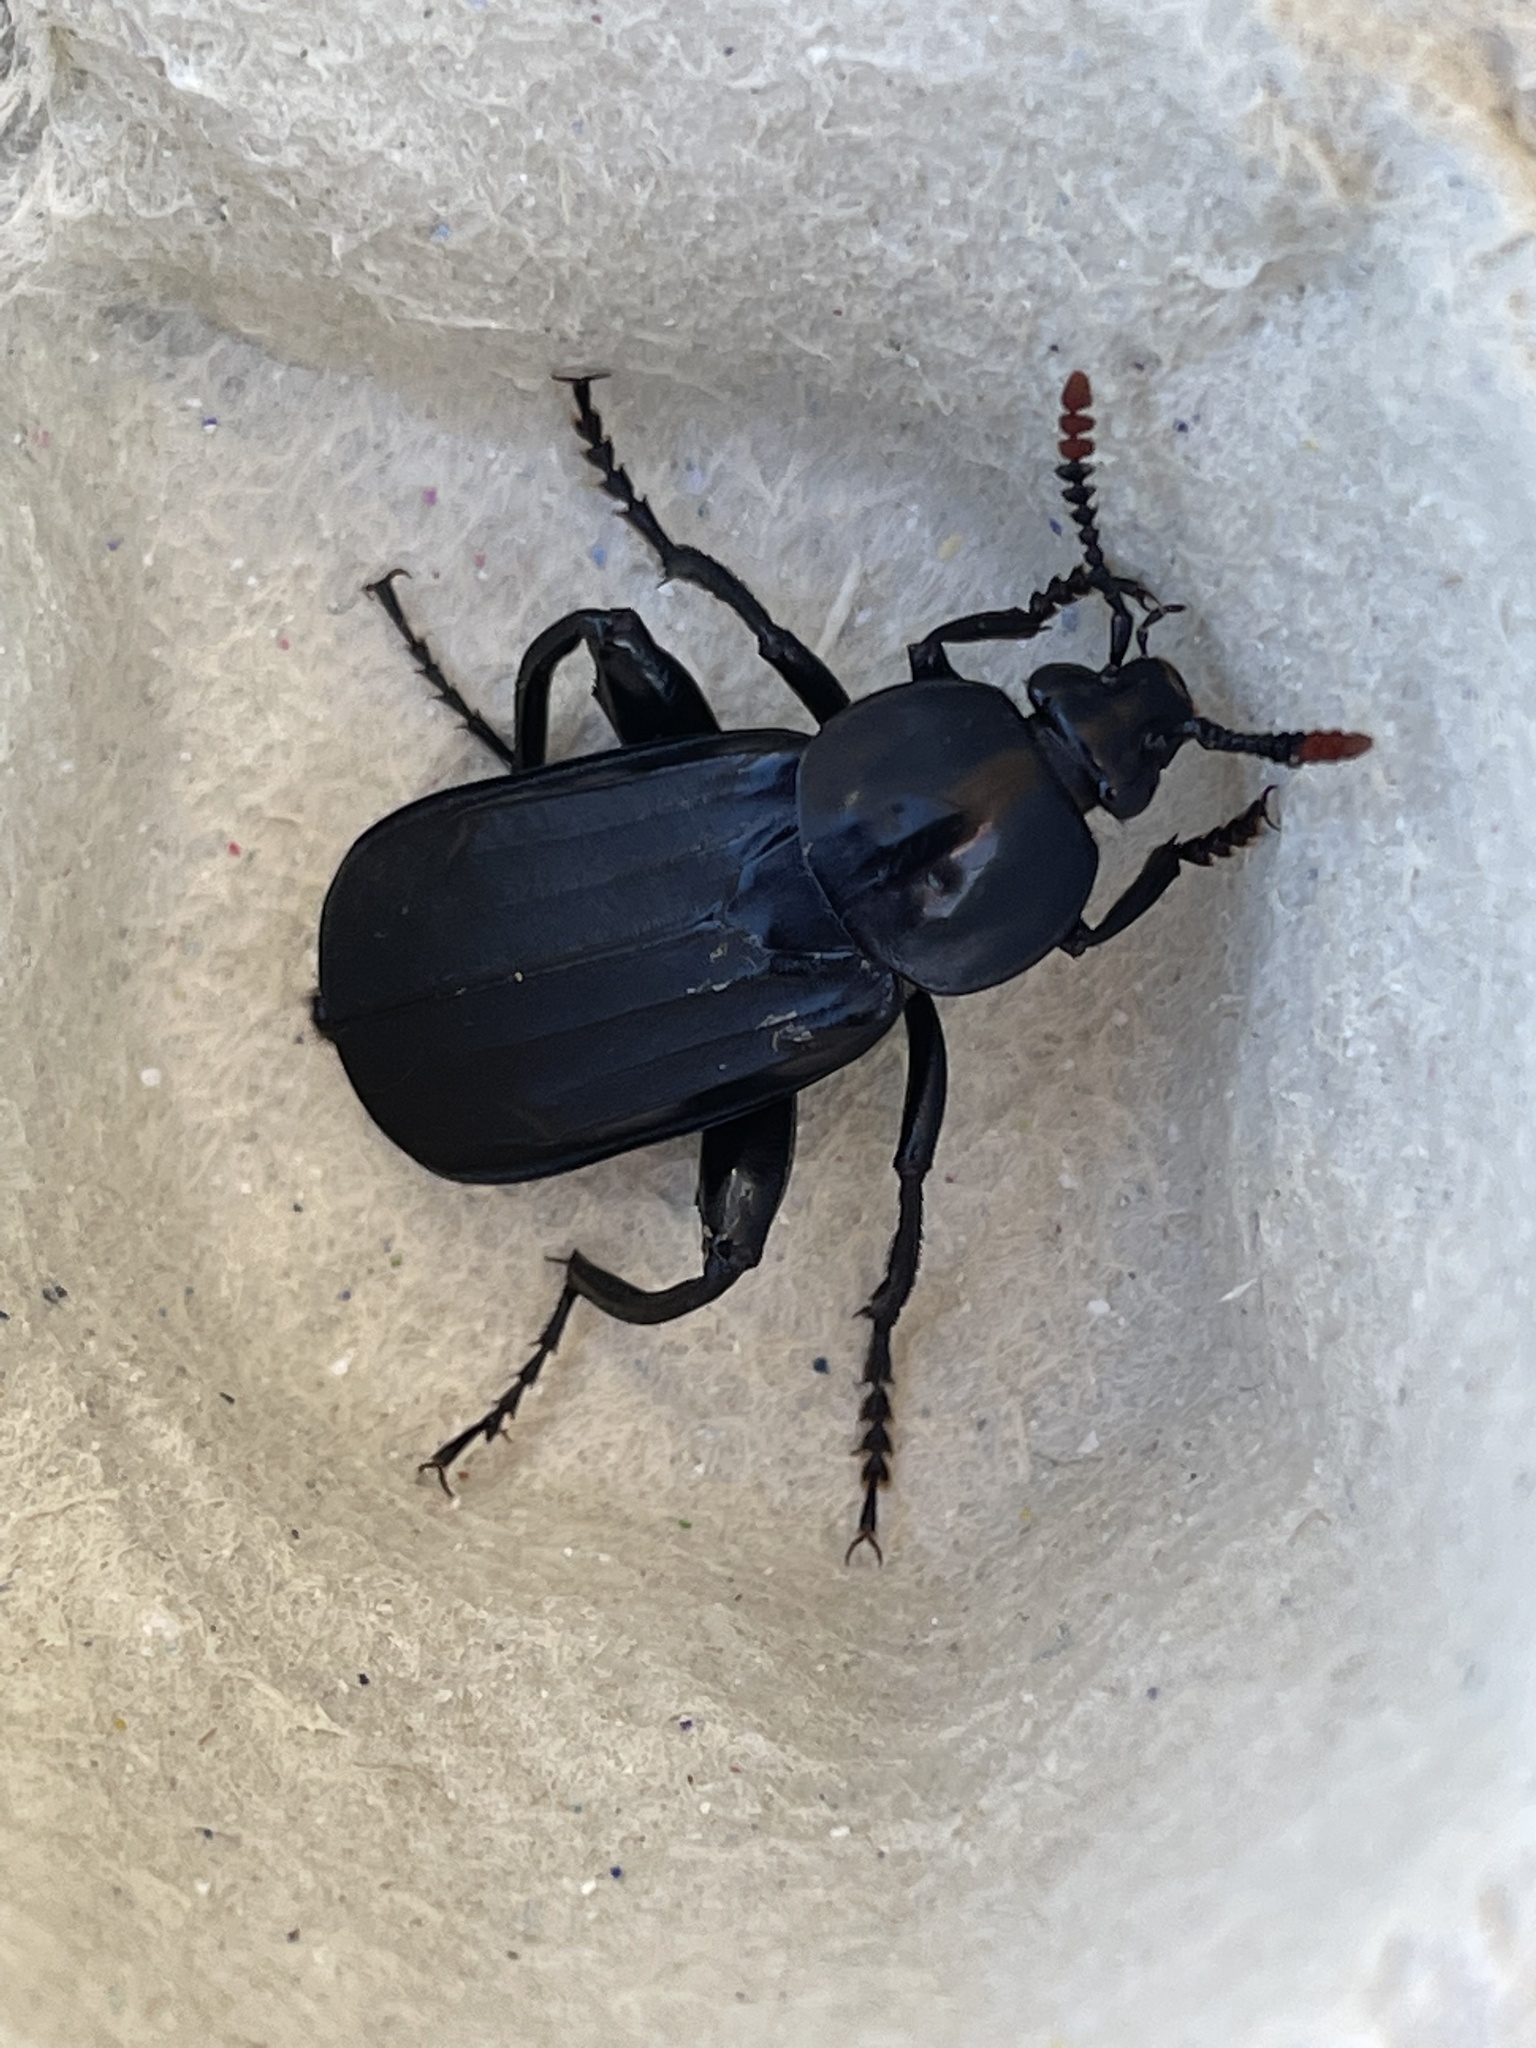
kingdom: Animalia
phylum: Arthropoda
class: Insecta
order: Coleoptera
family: Staphylinidae
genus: Necrodes
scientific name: Necrodes littoralis
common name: Shore sexton beetle
